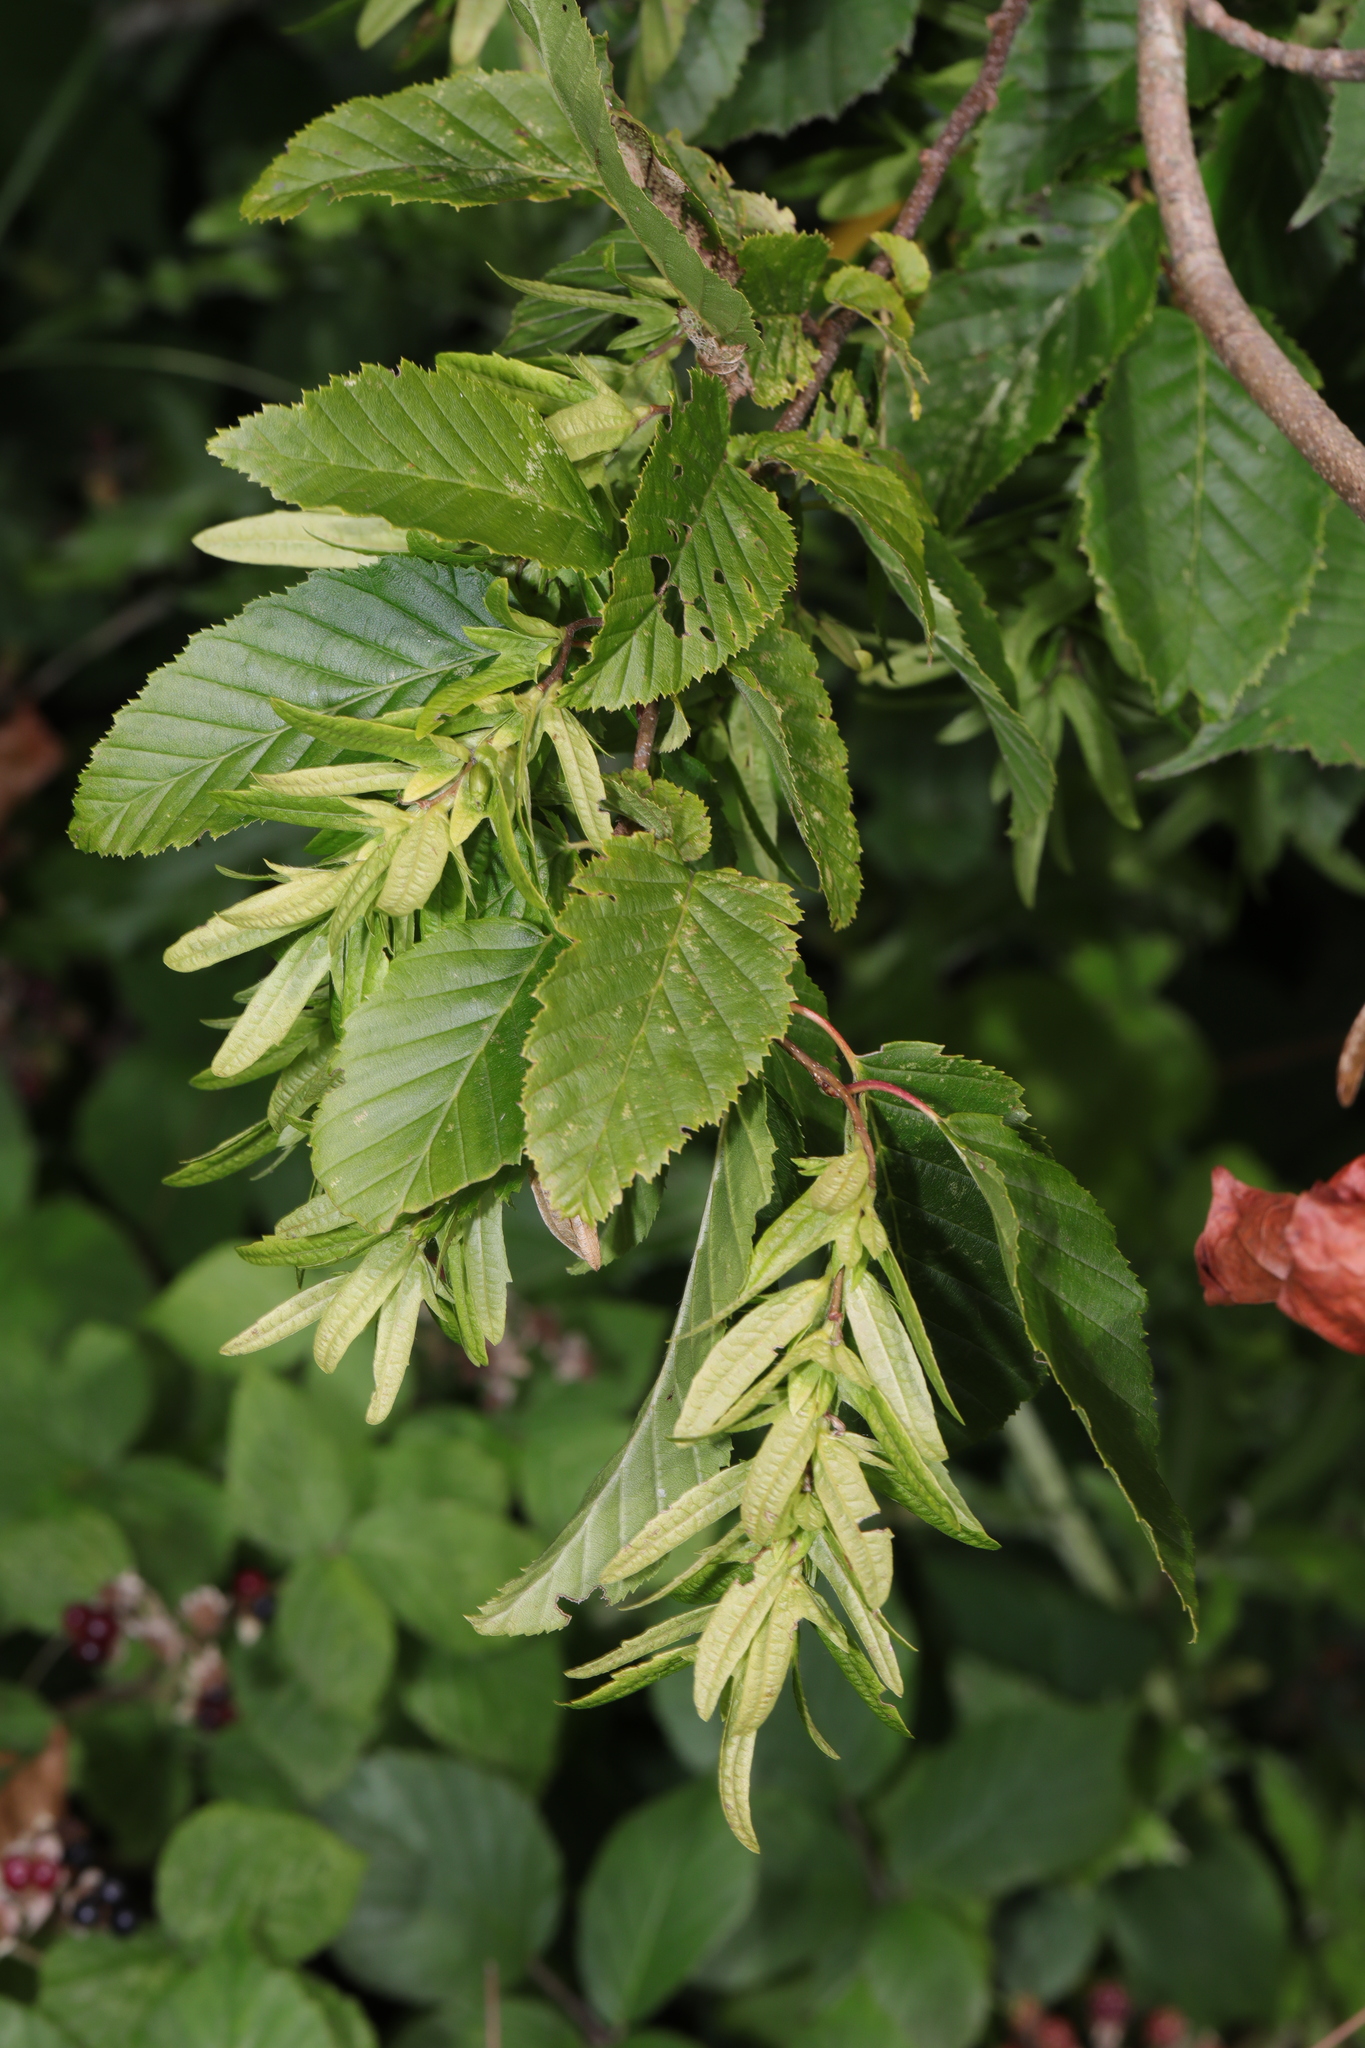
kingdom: Plantae
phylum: Tracheophyta
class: Magnoliopsida
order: Fagales
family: Betulaceae
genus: Carpinus
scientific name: Carpinus betulus
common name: Hornbeam
